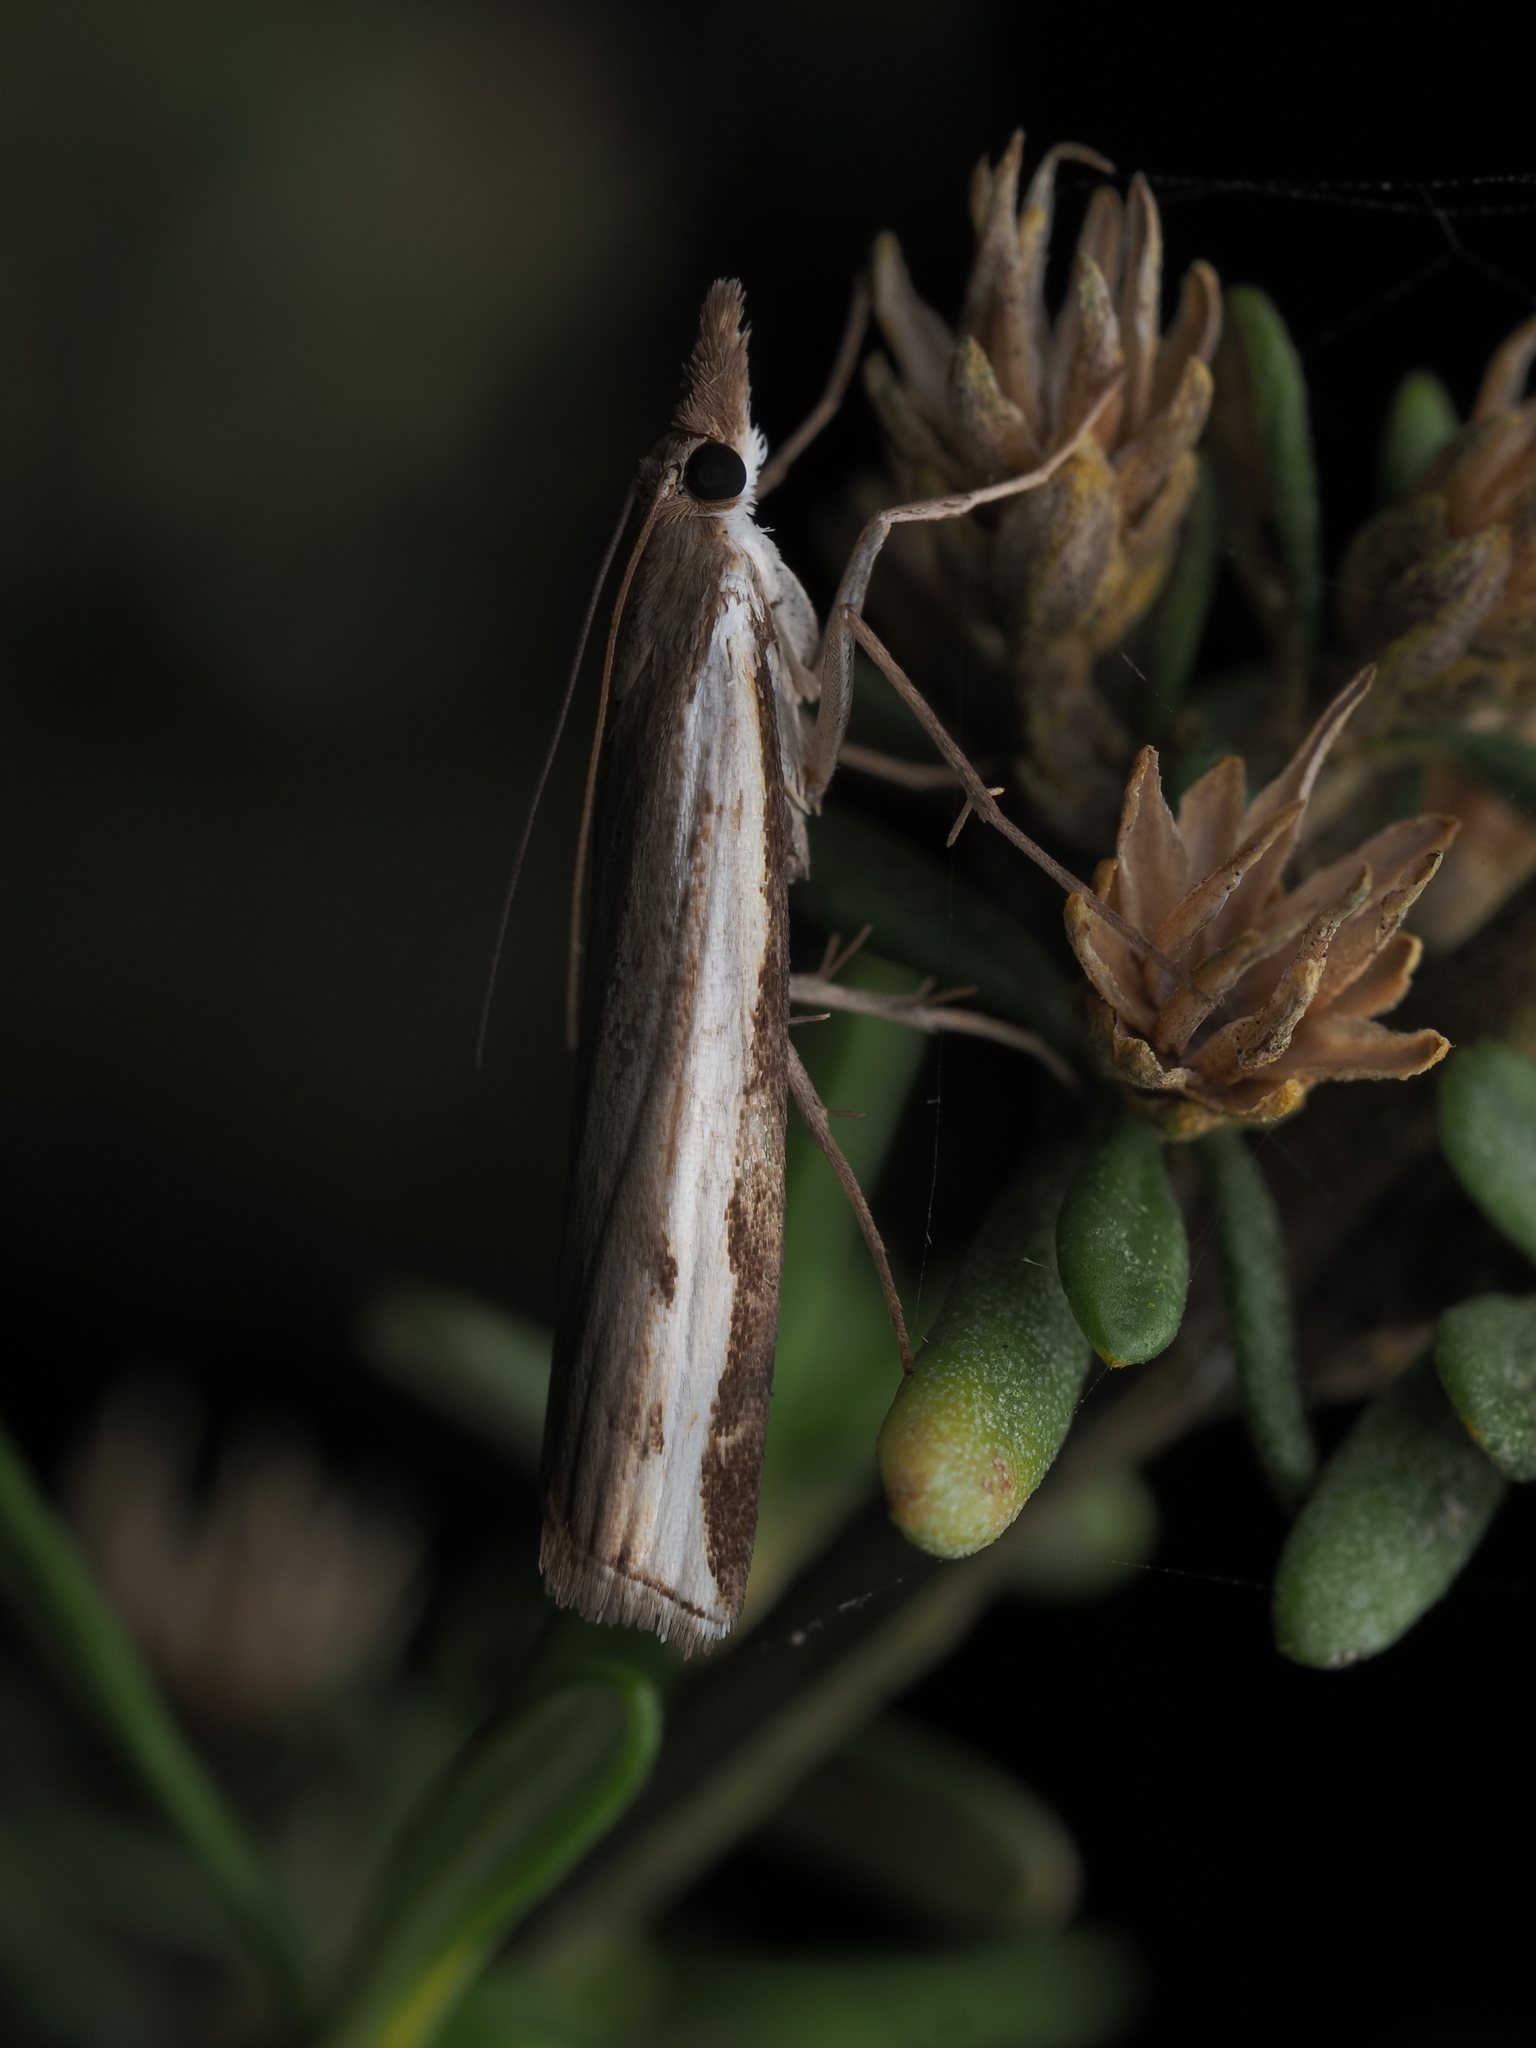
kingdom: Animalia
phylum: Arthropoda
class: Insecta
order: Lepidoptera
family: Crambidae
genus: Orocrambus
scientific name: Orocrambus flexuosellus
